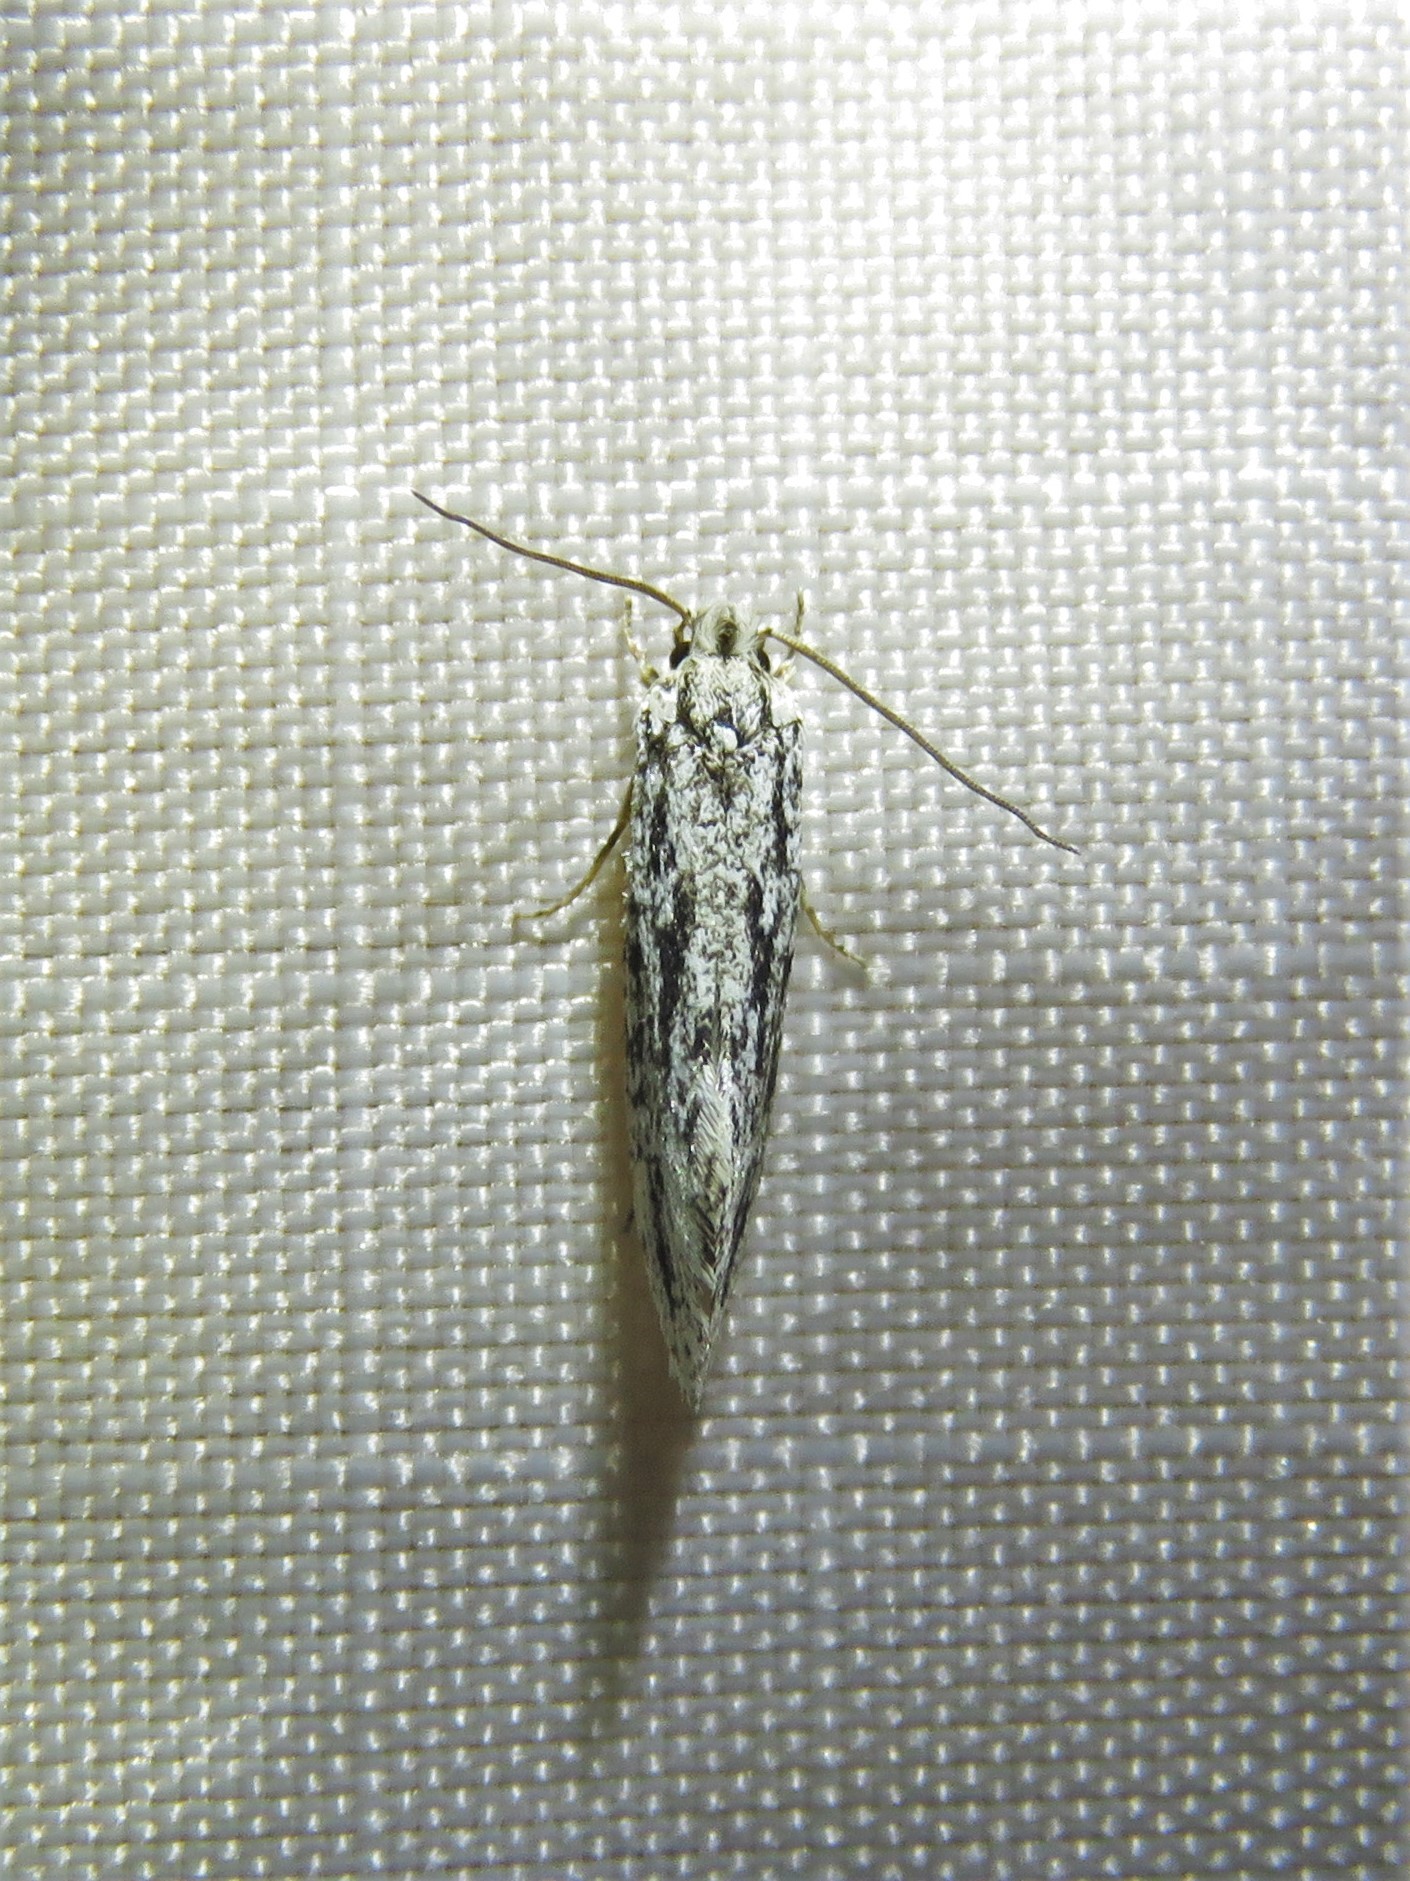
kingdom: Animalia
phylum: Arthropoda
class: Insecta
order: Lepidoptera
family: Tineidae
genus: Nemapogon
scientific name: Nemapogon multistriatella
